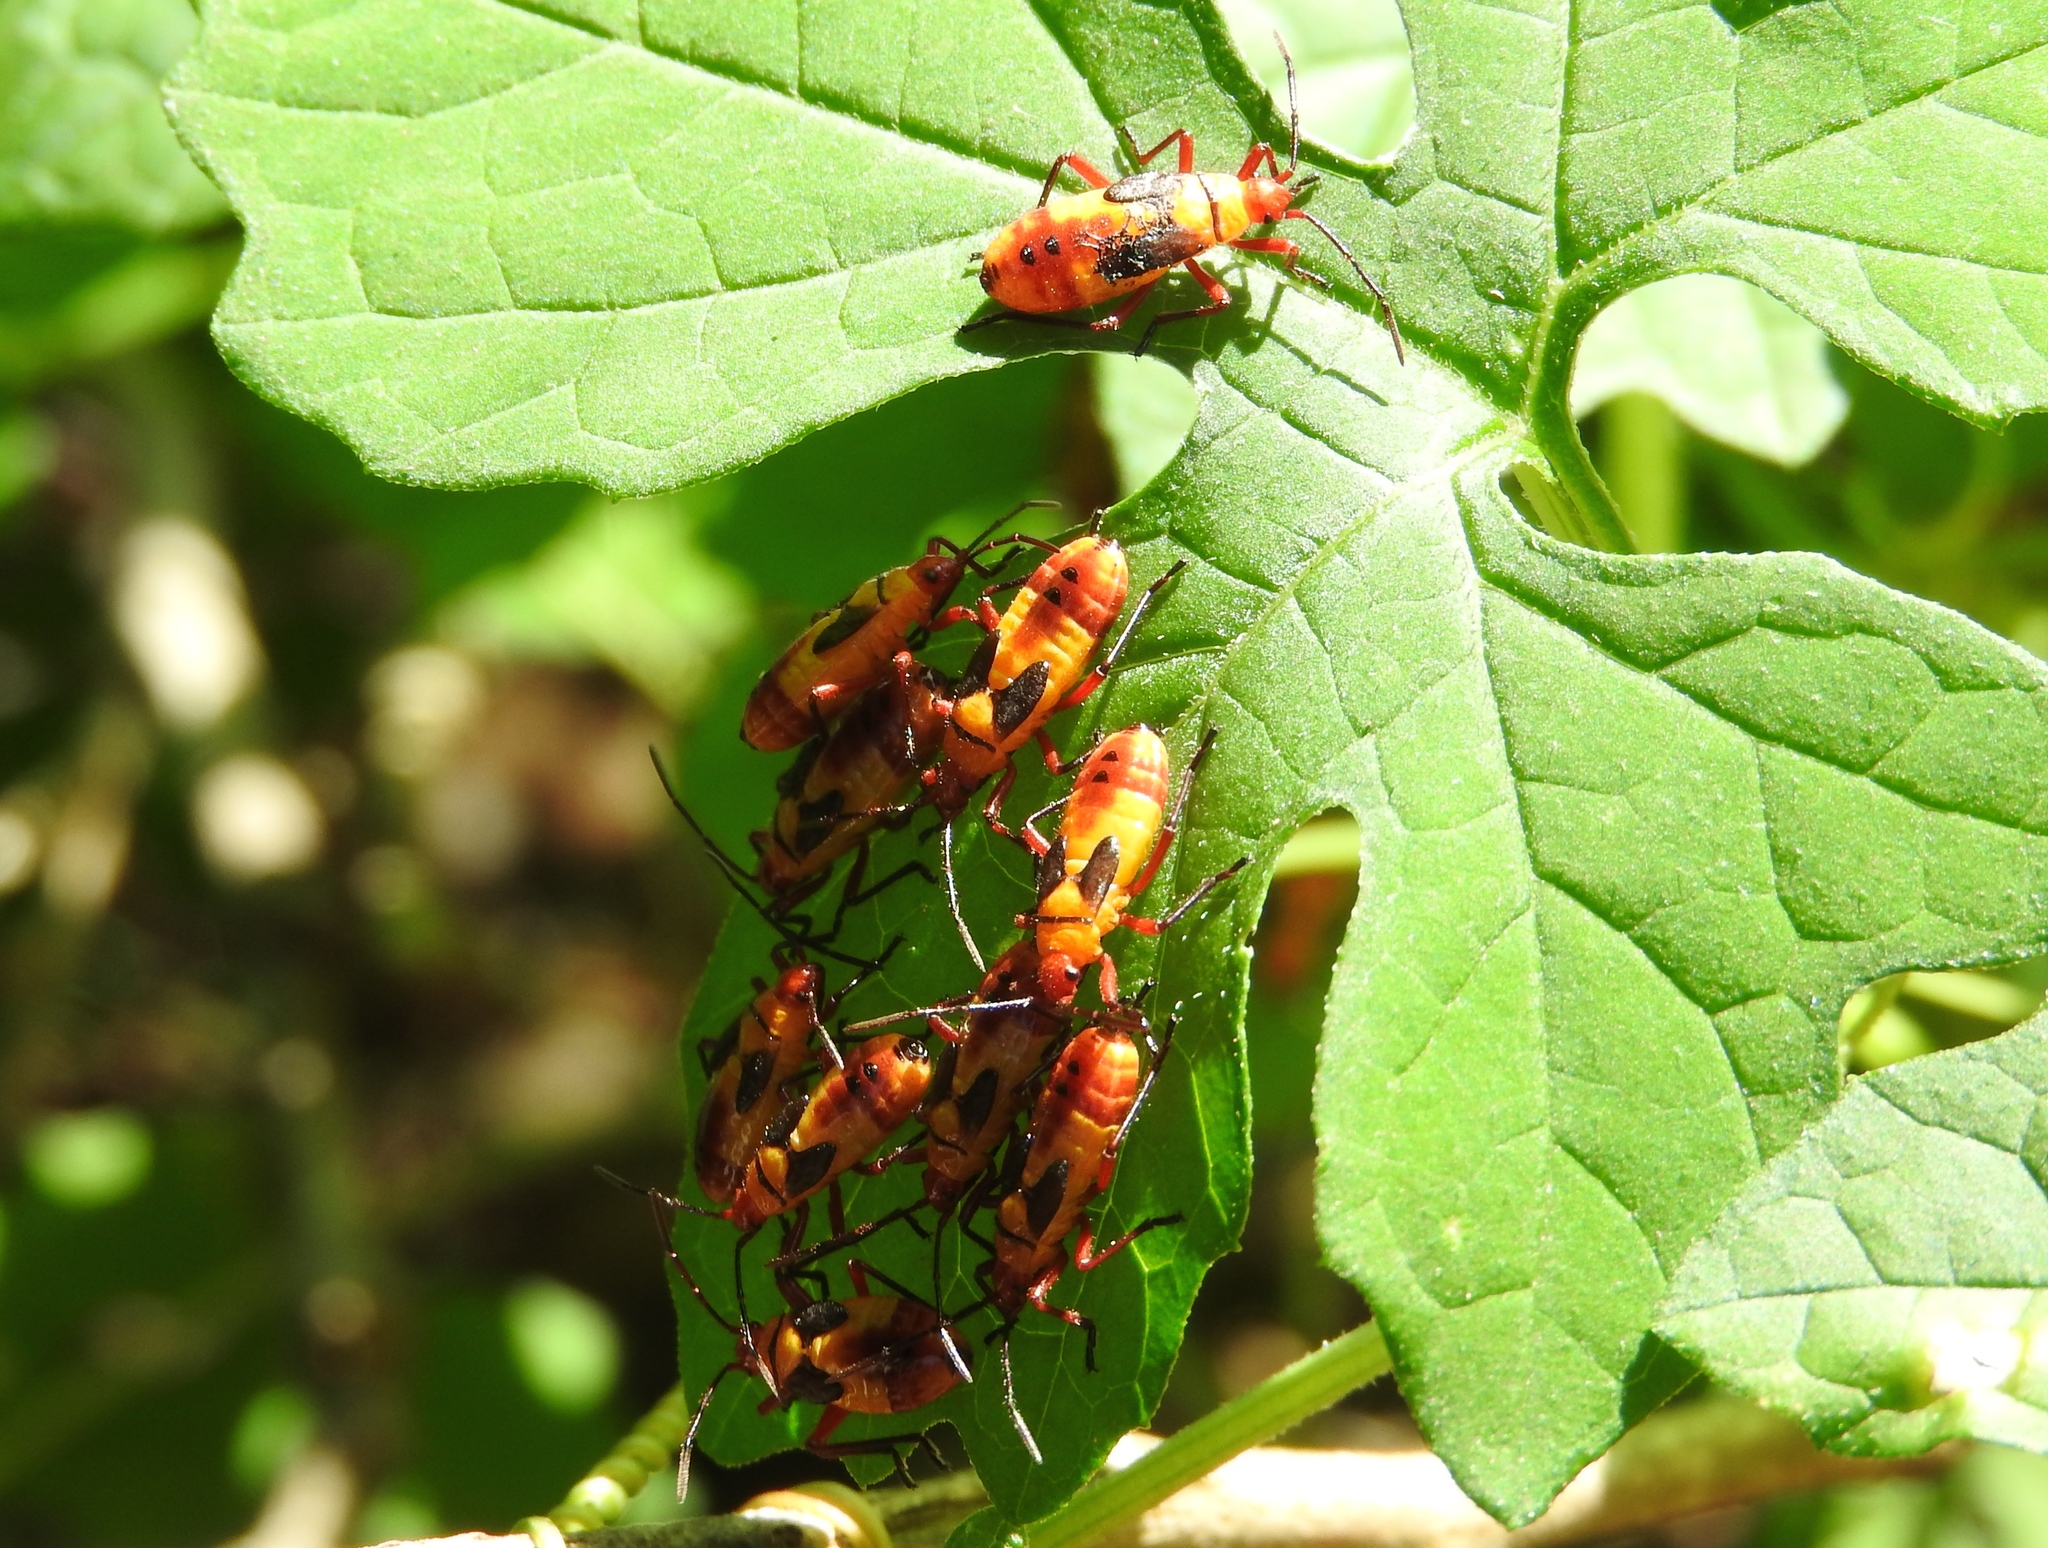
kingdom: Animalia
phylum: Arthropoda
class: Insecta
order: Hemiptera
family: Lygaeidae
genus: Oncopeltus
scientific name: Oncopeltus
